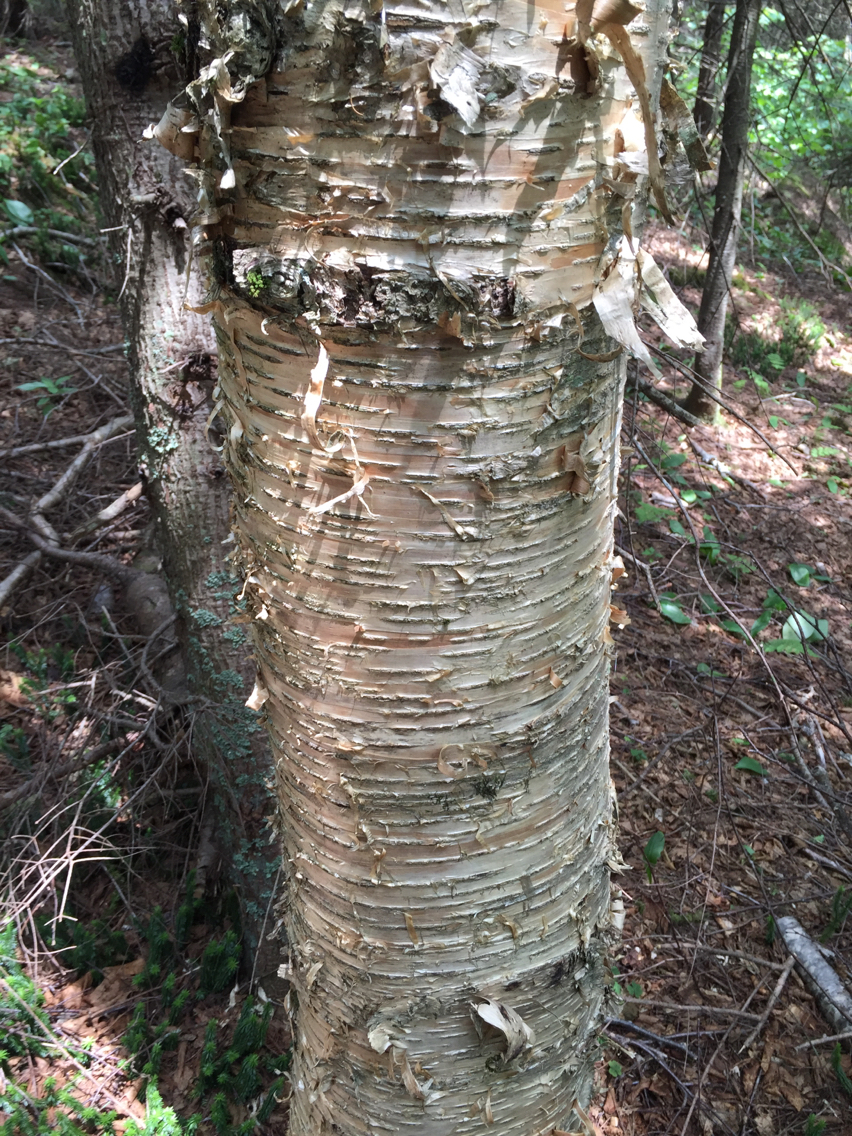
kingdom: Plantae
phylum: Tracheophyta
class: Magnoliopsida
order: Fagales
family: Betulaceae
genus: Betula
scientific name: Betula alleghaniensis
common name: Yellow birch
